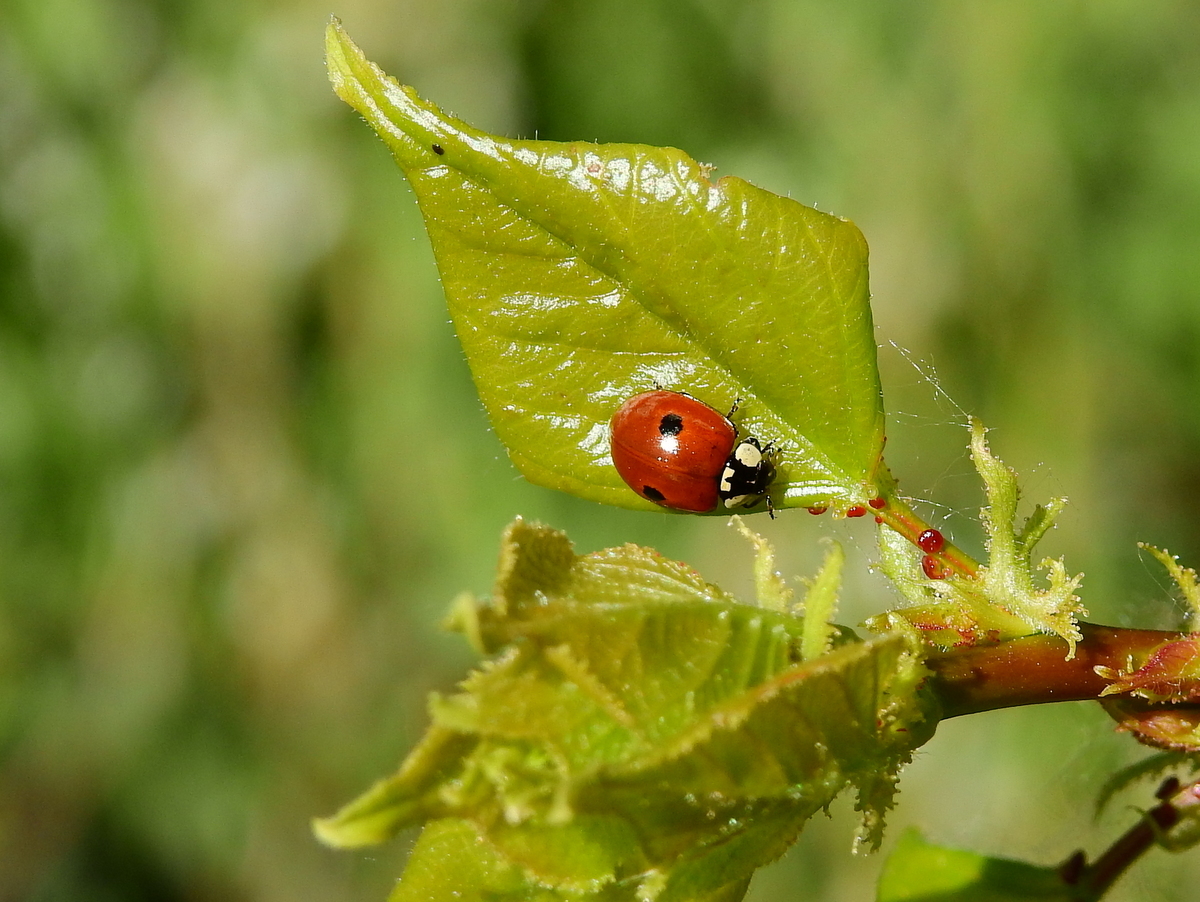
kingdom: Animalia
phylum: Arthropoda
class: Insecta
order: Coleoptera
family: Coccinellidae
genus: Adalia
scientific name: Adalia bipunctata
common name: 2-spot ladybird
